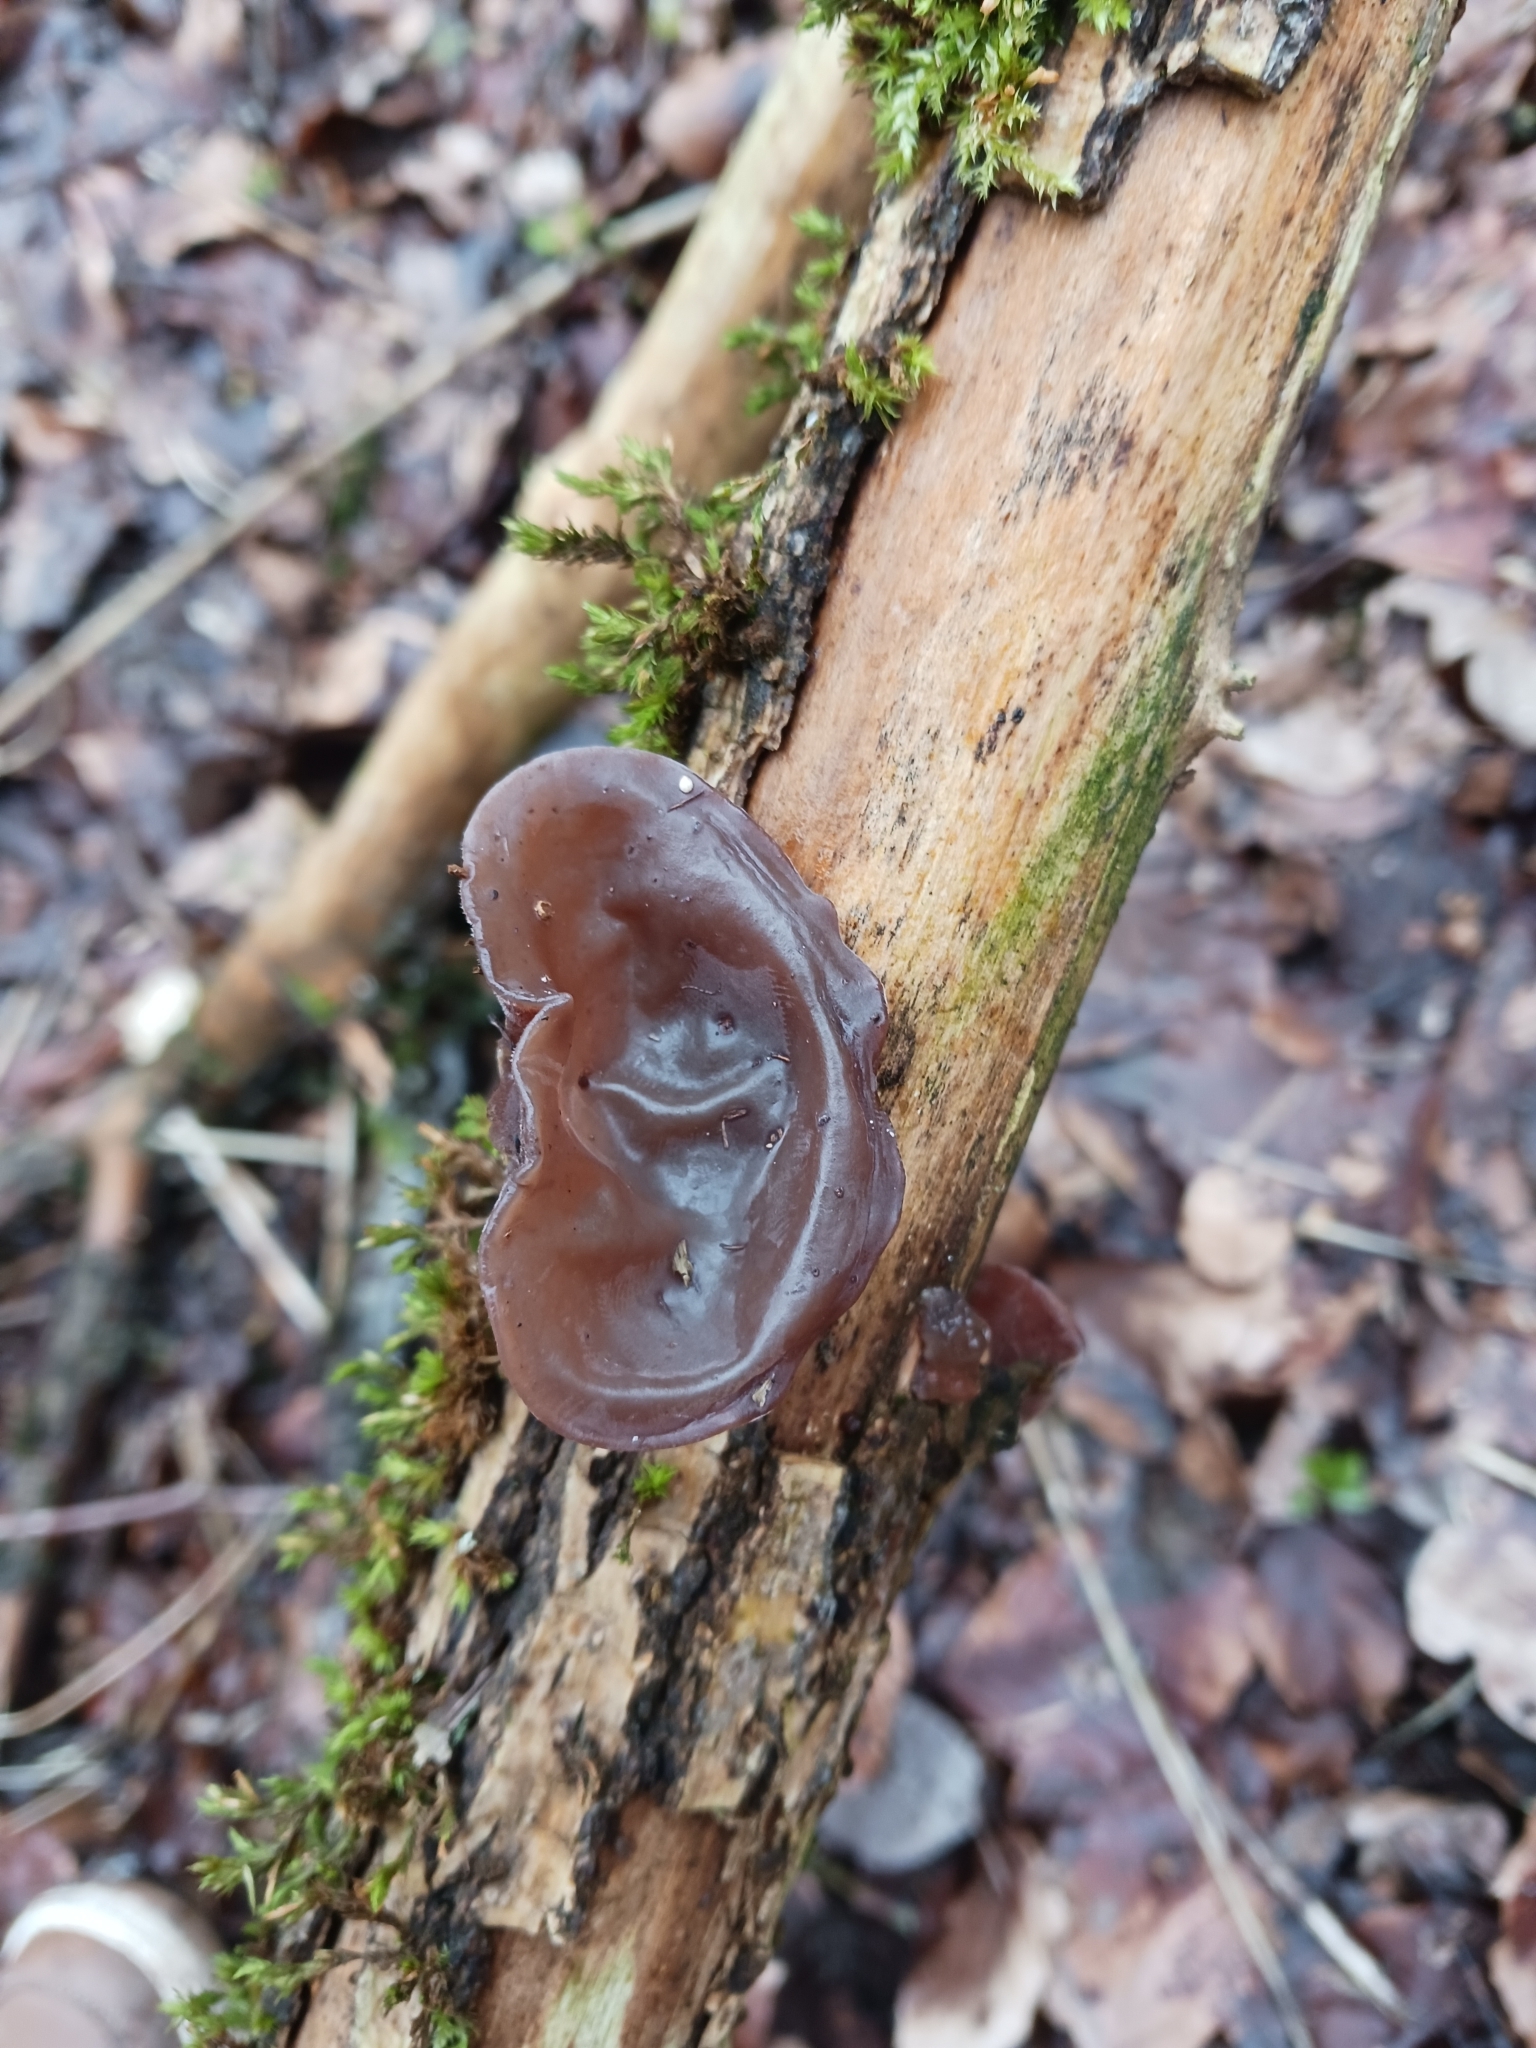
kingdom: Fungi
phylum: Basidiomycota
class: Agaricomycetes
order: Auriculariales
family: Auriculariaceae
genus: Auricularia
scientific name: Auricularia auricula-judae
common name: Jelly ear
